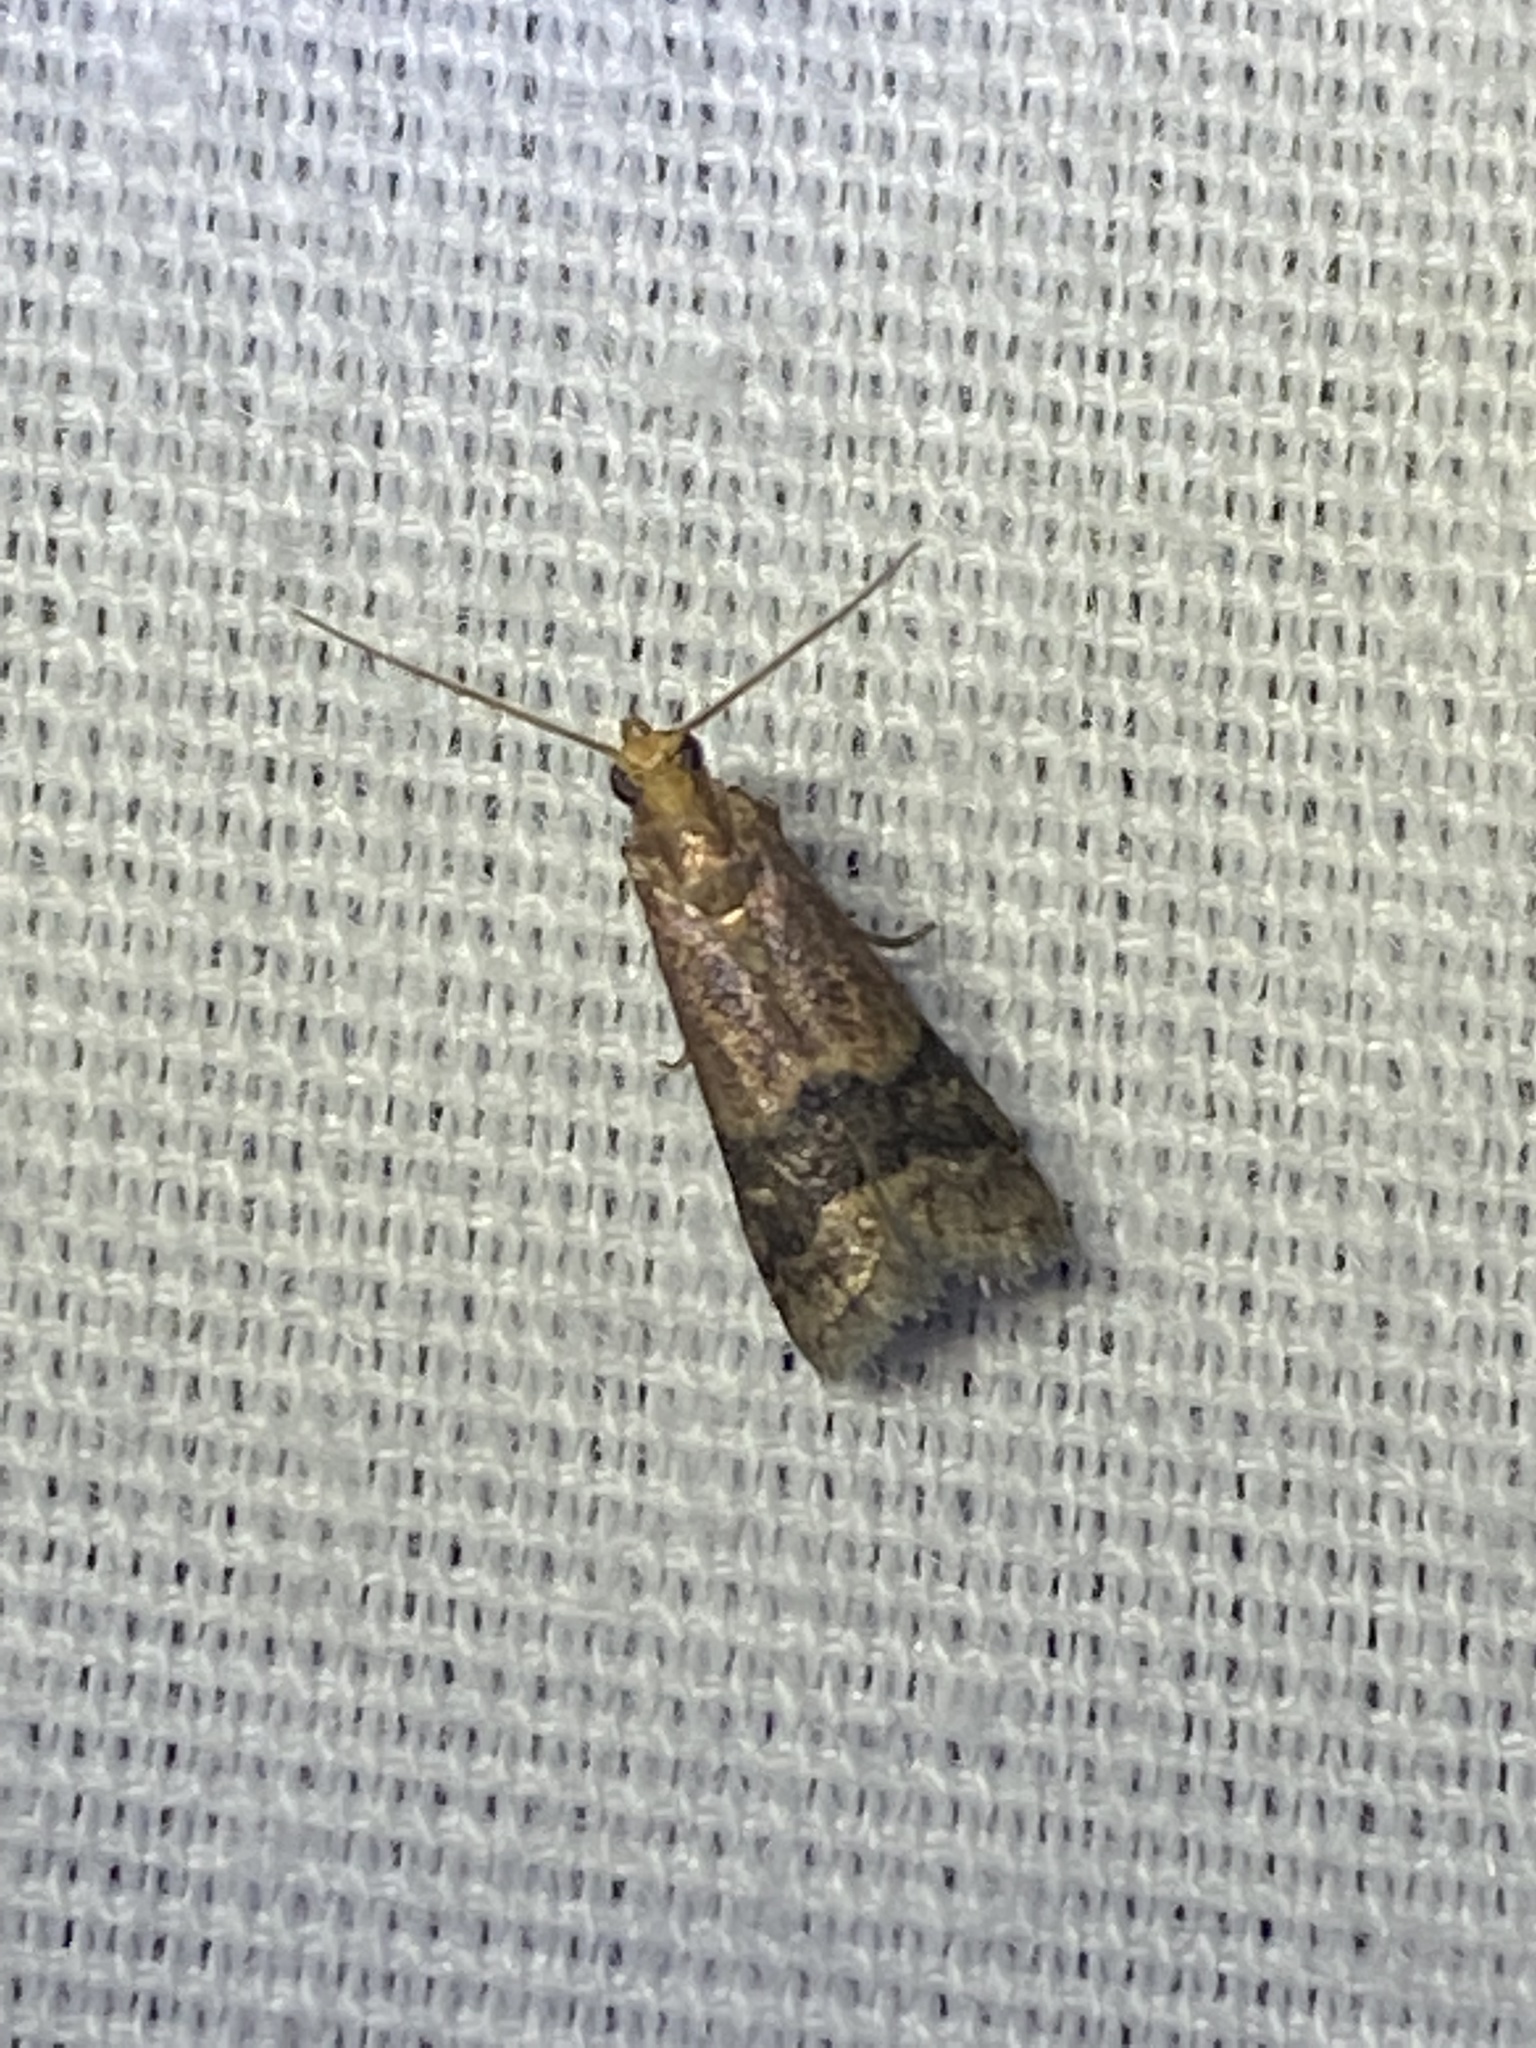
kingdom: Animalia
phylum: Arthropoda
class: Insecta
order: Lepidoptera
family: Pyralidae
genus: Eulogia
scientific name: Eulogia ochrifrontella
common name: Broad-banded eulogia moth
